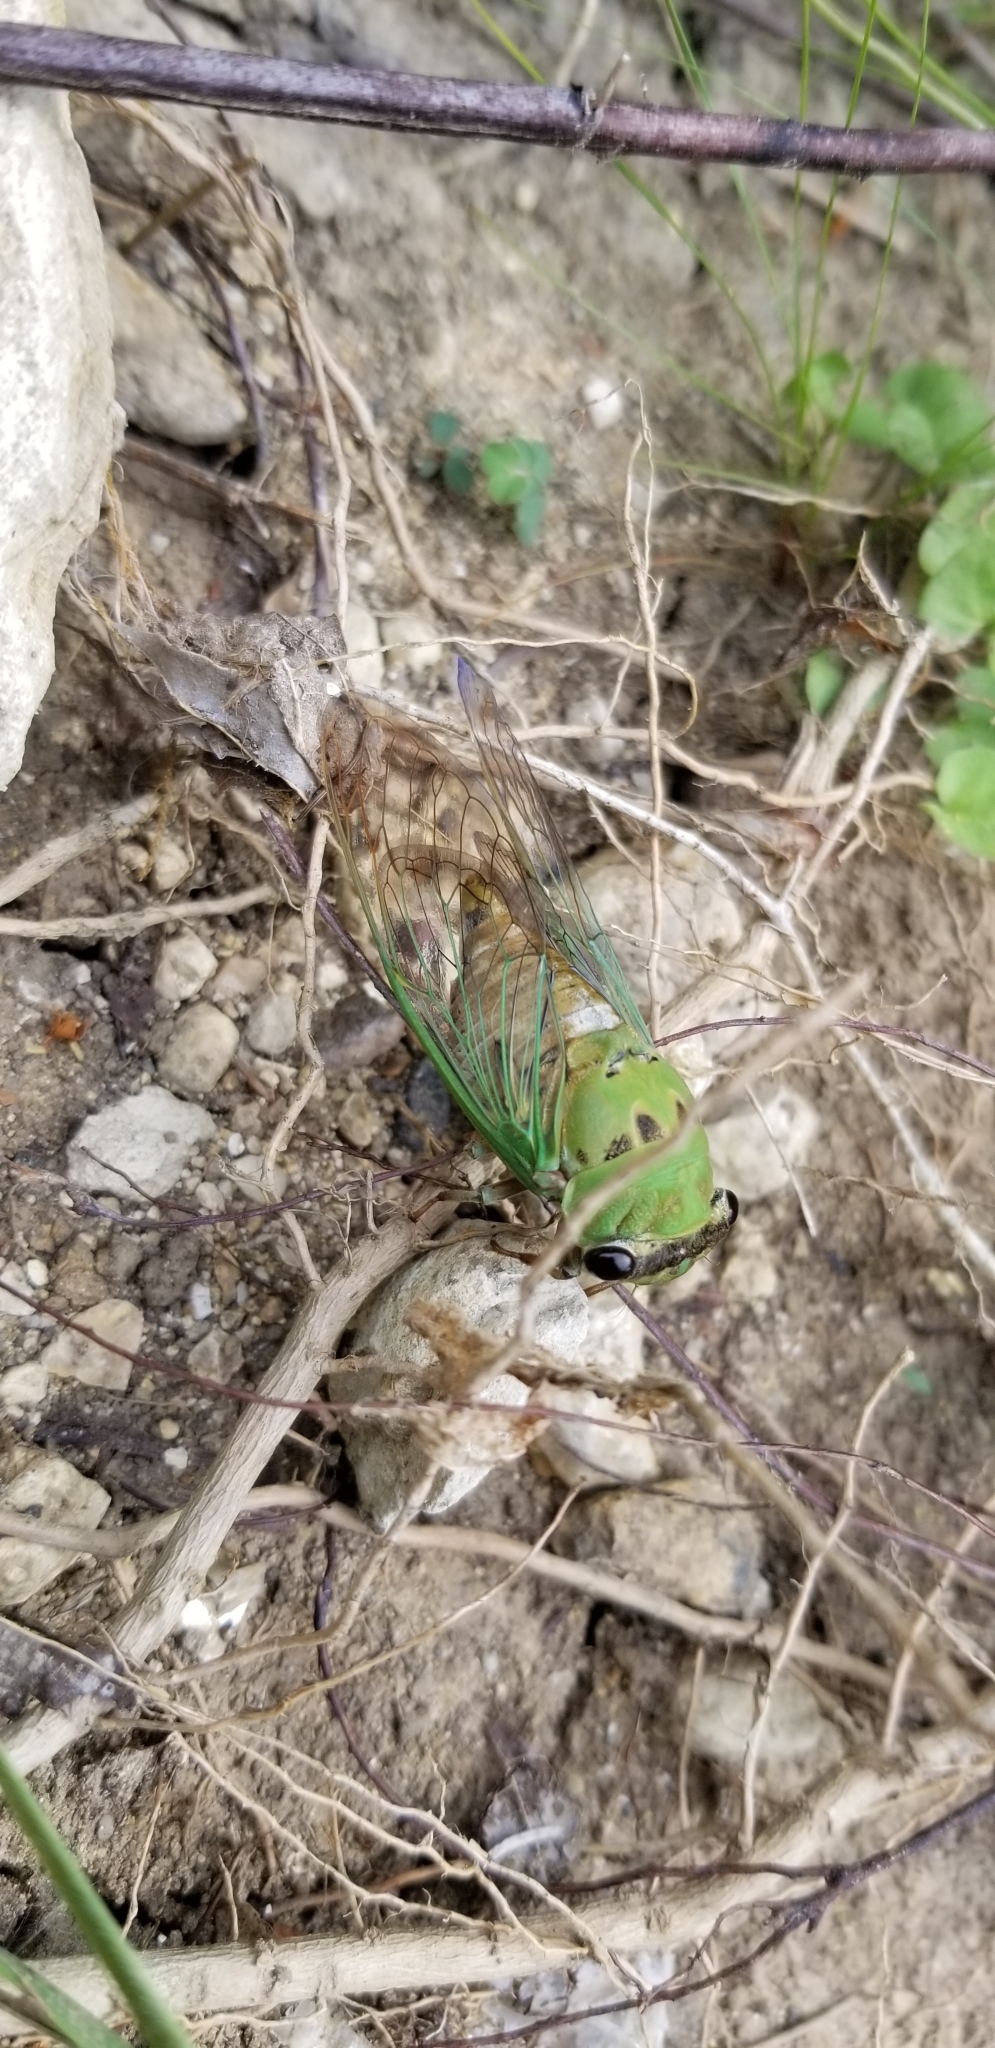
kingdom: Animalia
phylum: Arthropoda
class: Insecta
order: Hemiptera
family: Cicadidae
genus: Neotibicen
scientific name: Neotibicen superbus
